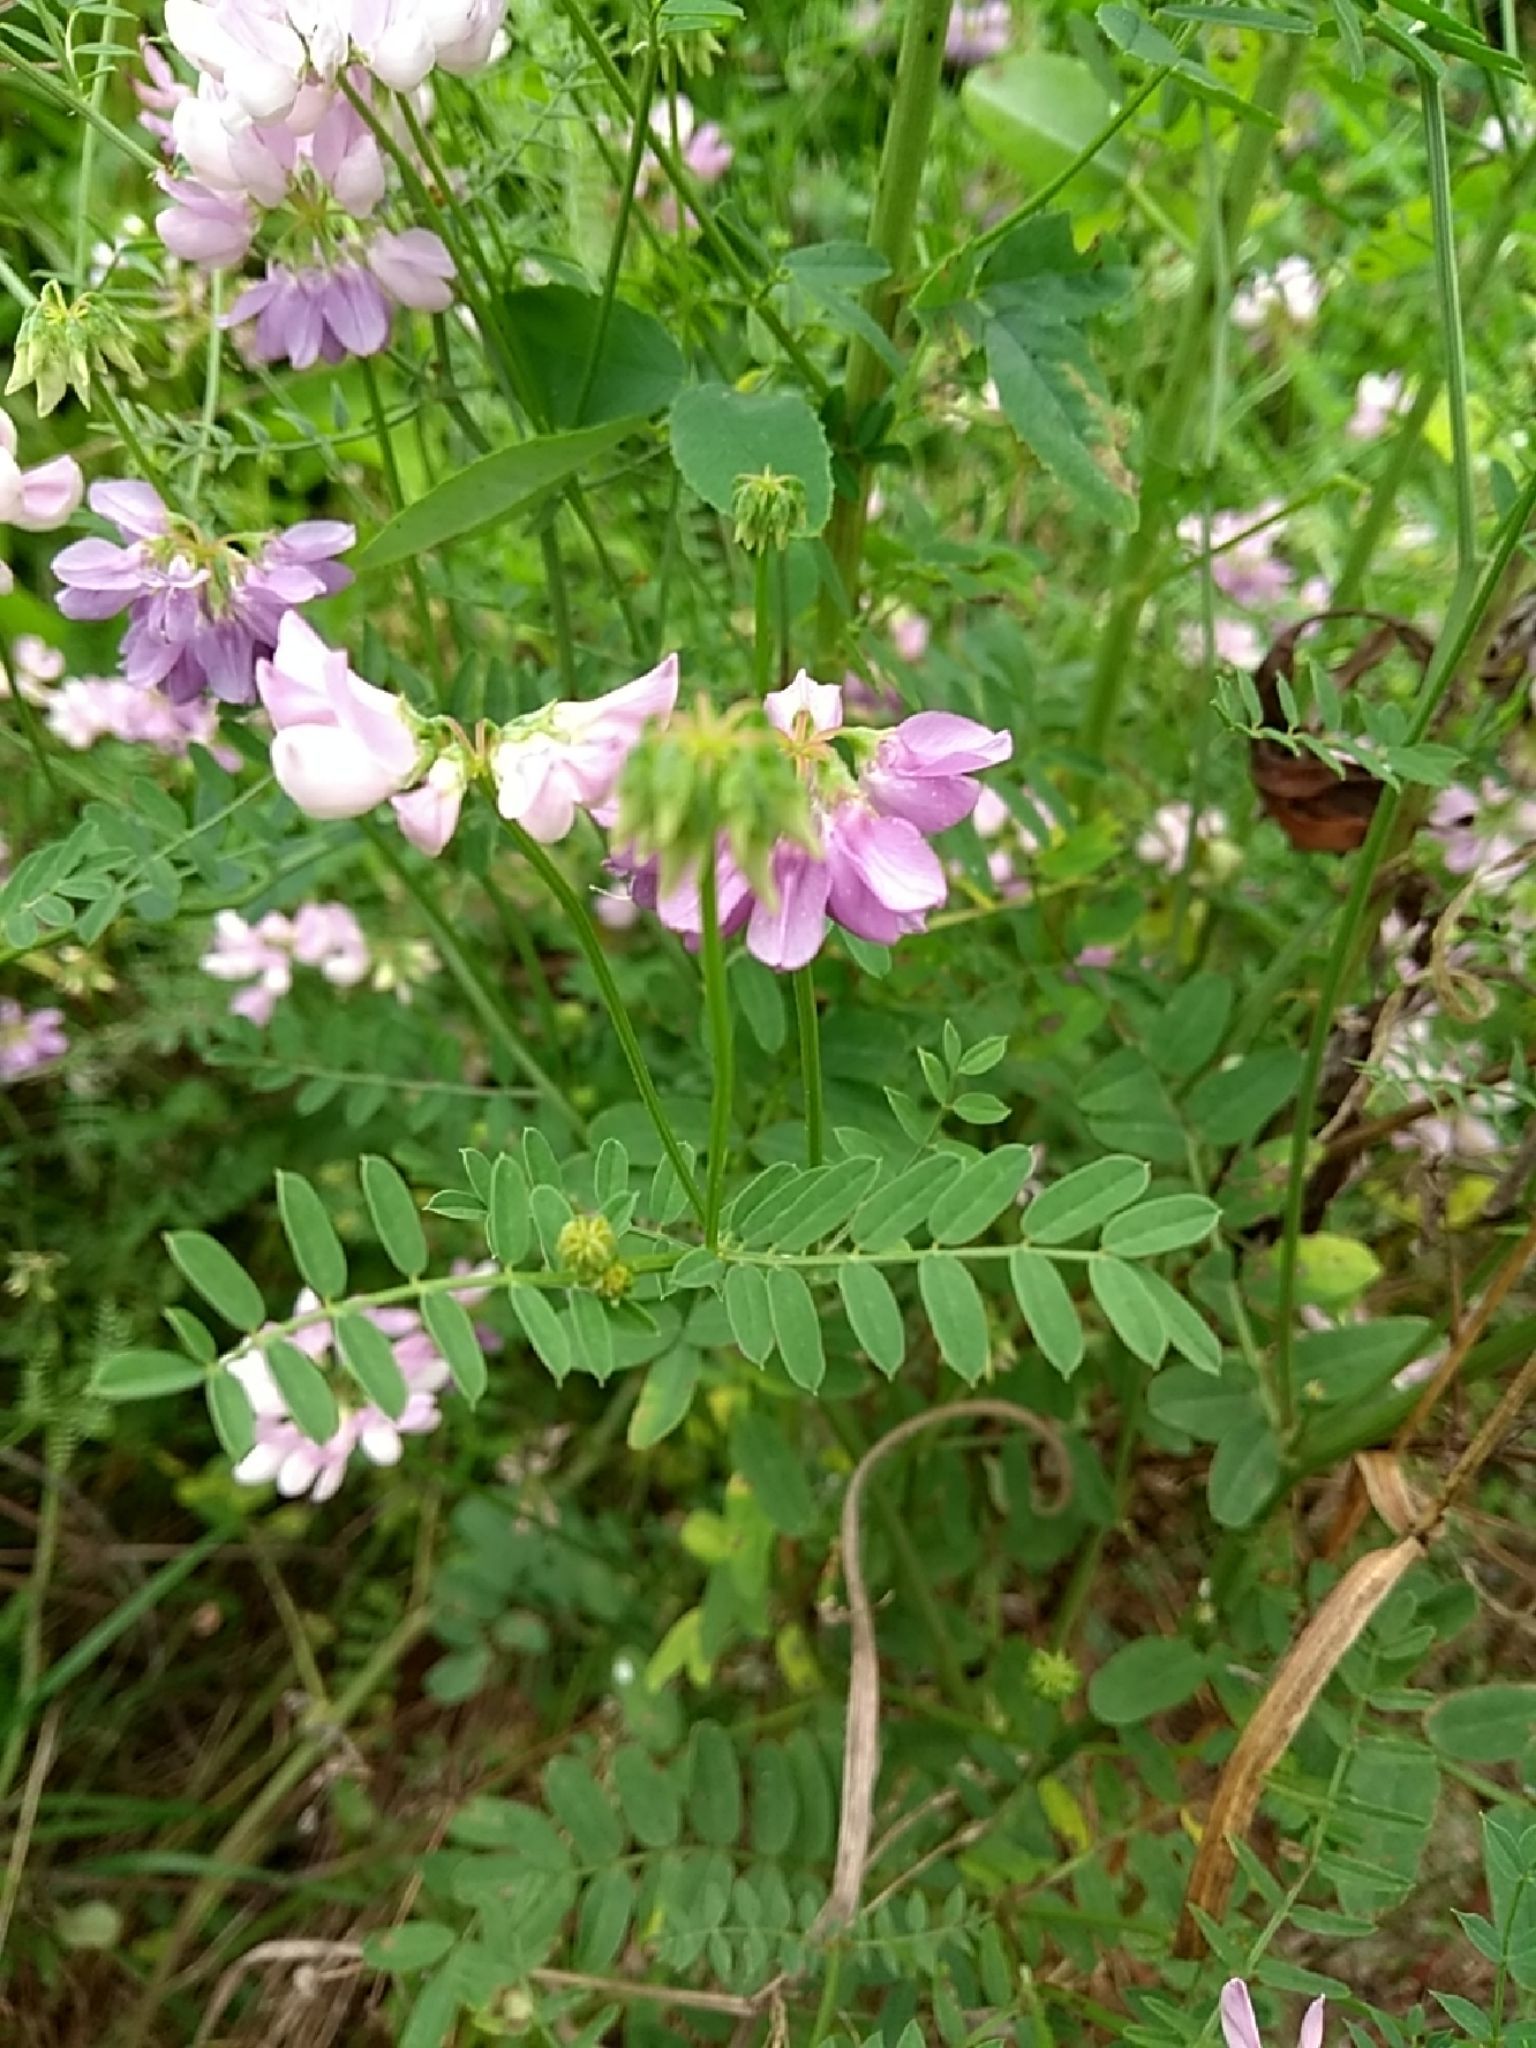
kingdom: Plantae
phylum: Tracheophyta
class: Magnoliopsida
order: Fabales
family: Fabaceae
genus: Coronilla
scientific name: Coronilla varia
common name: Crownvetch
